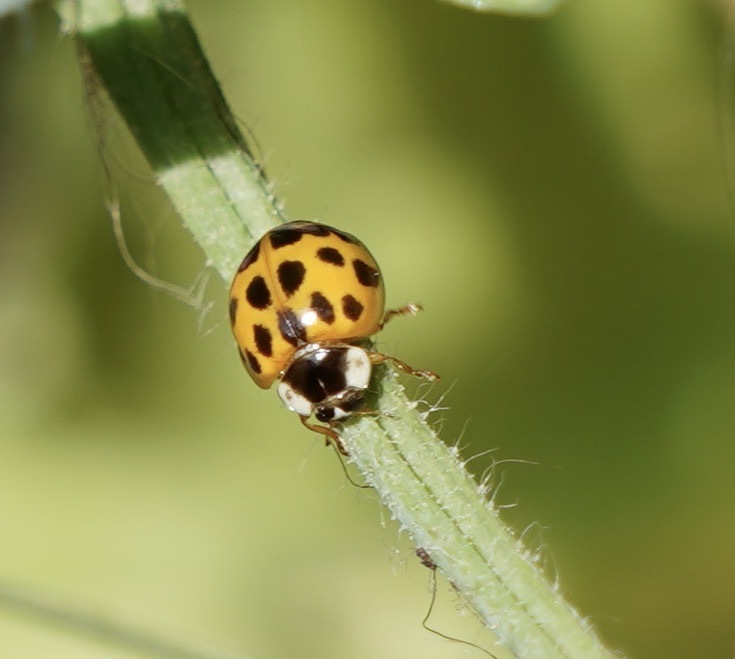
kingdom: Animalia
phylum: Arthropoda
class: Insecta
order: Coleoptera
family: Coccinellidae
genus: Harmonia
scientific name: Harmonia axyridis
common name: Harlequin ladybird
